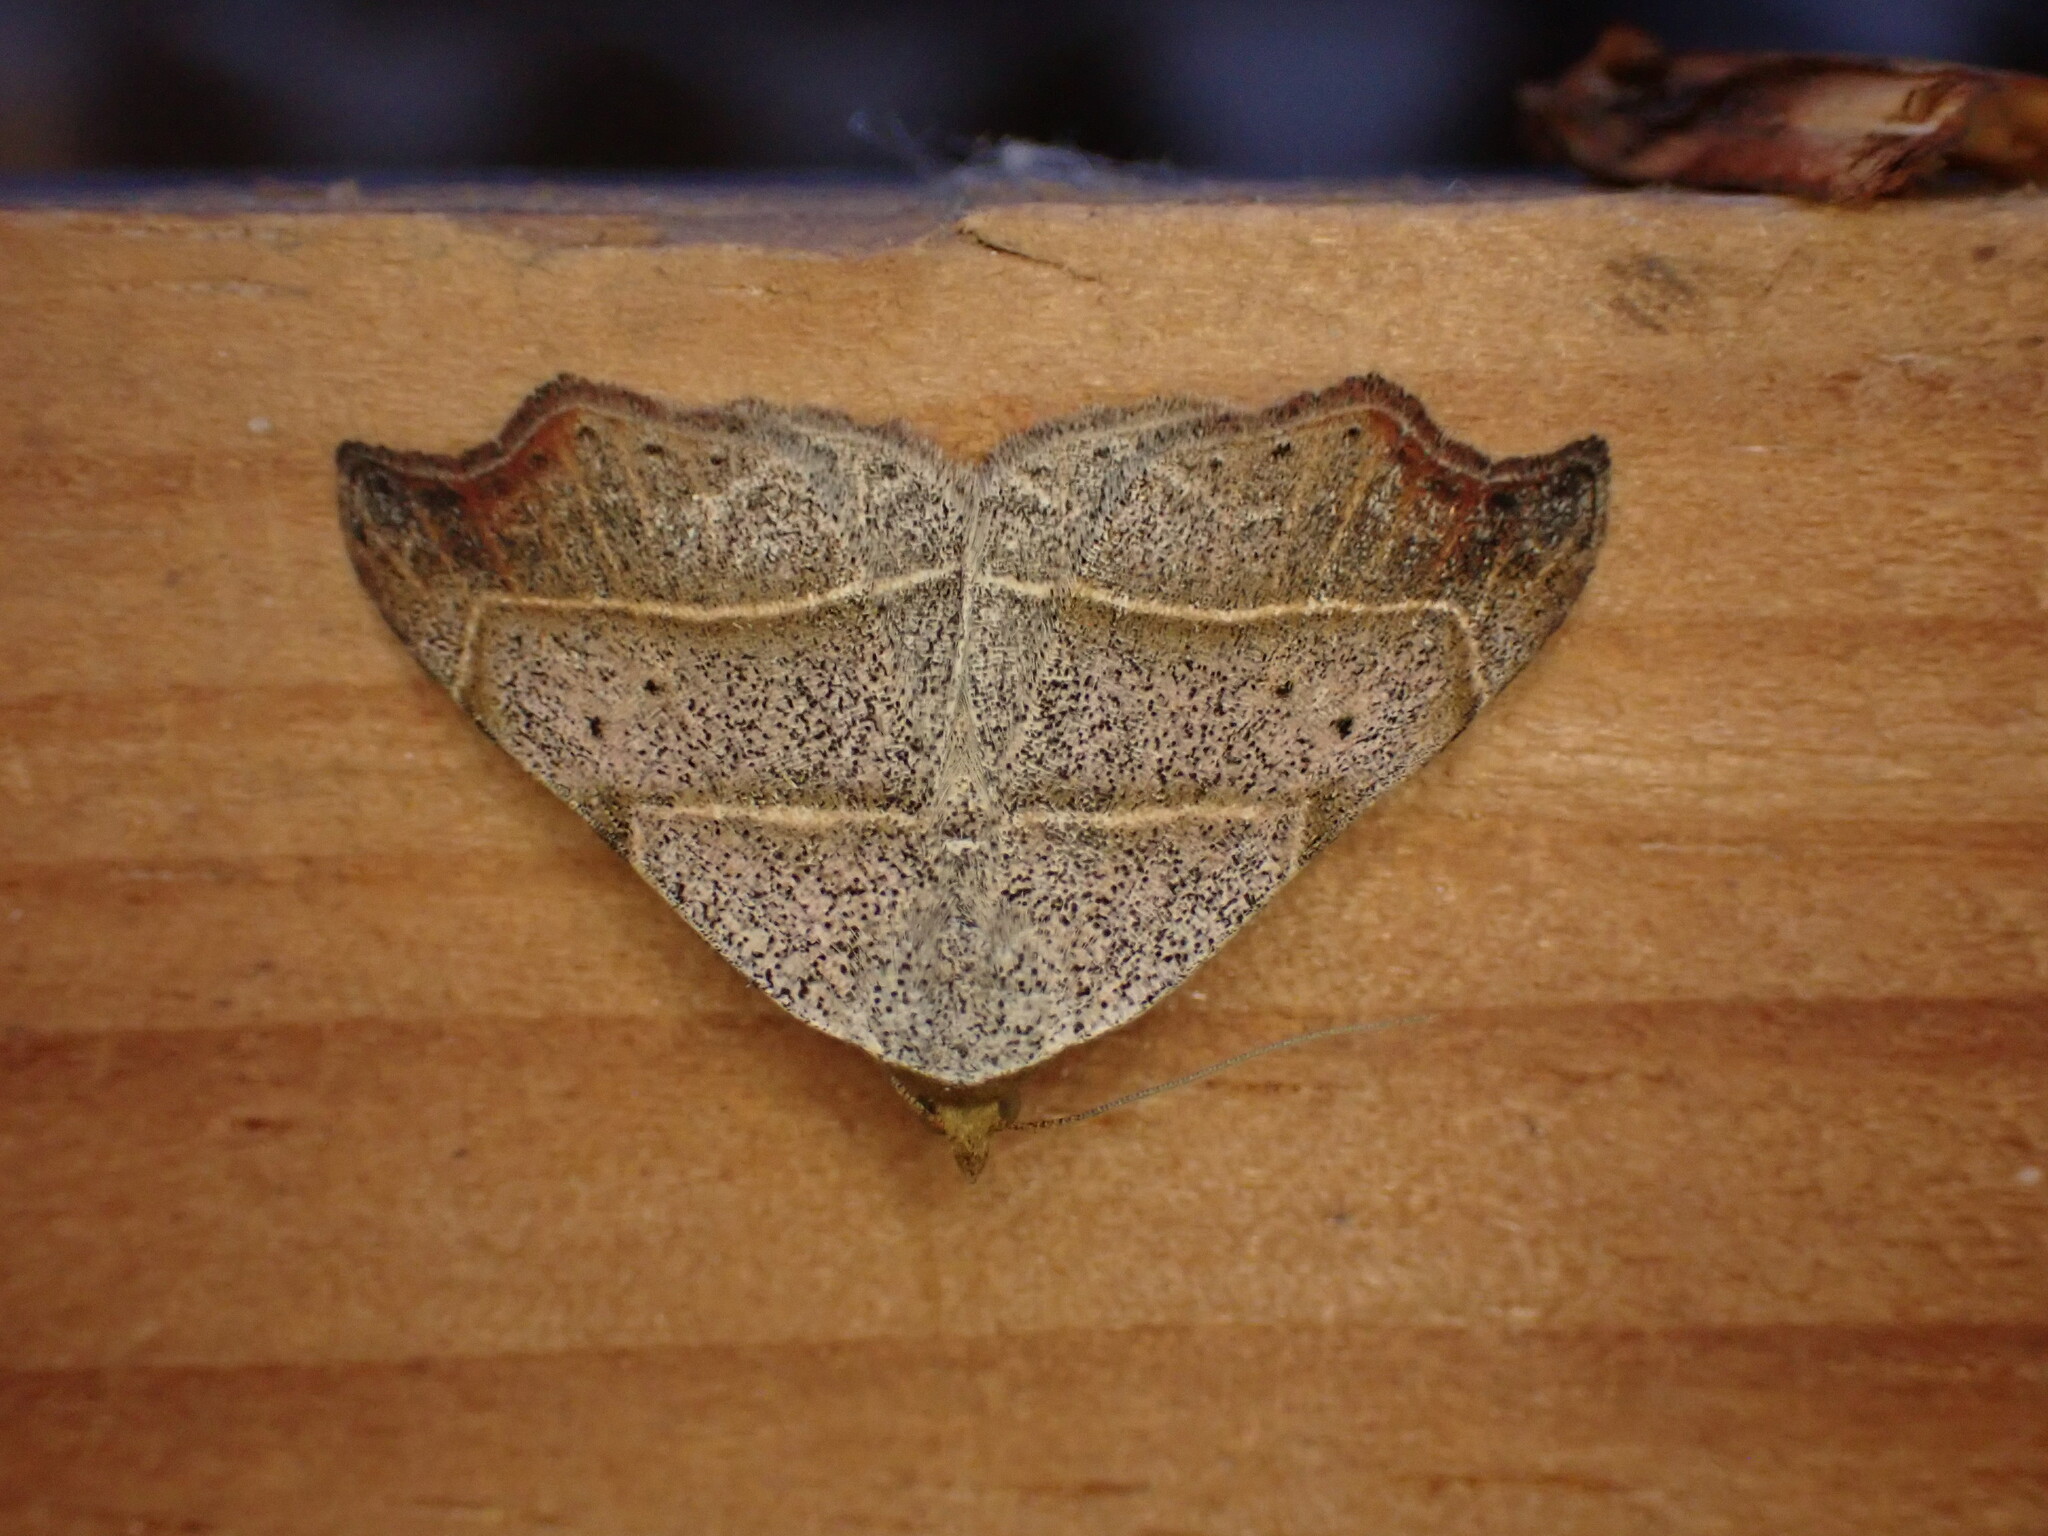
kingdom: Animalia
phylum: Arthropoda
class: Insecta
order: Lepidoptera
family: Erebidae
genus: Laspeyria
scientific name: Laspeyria flexula
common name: Beautiful hook-tip
